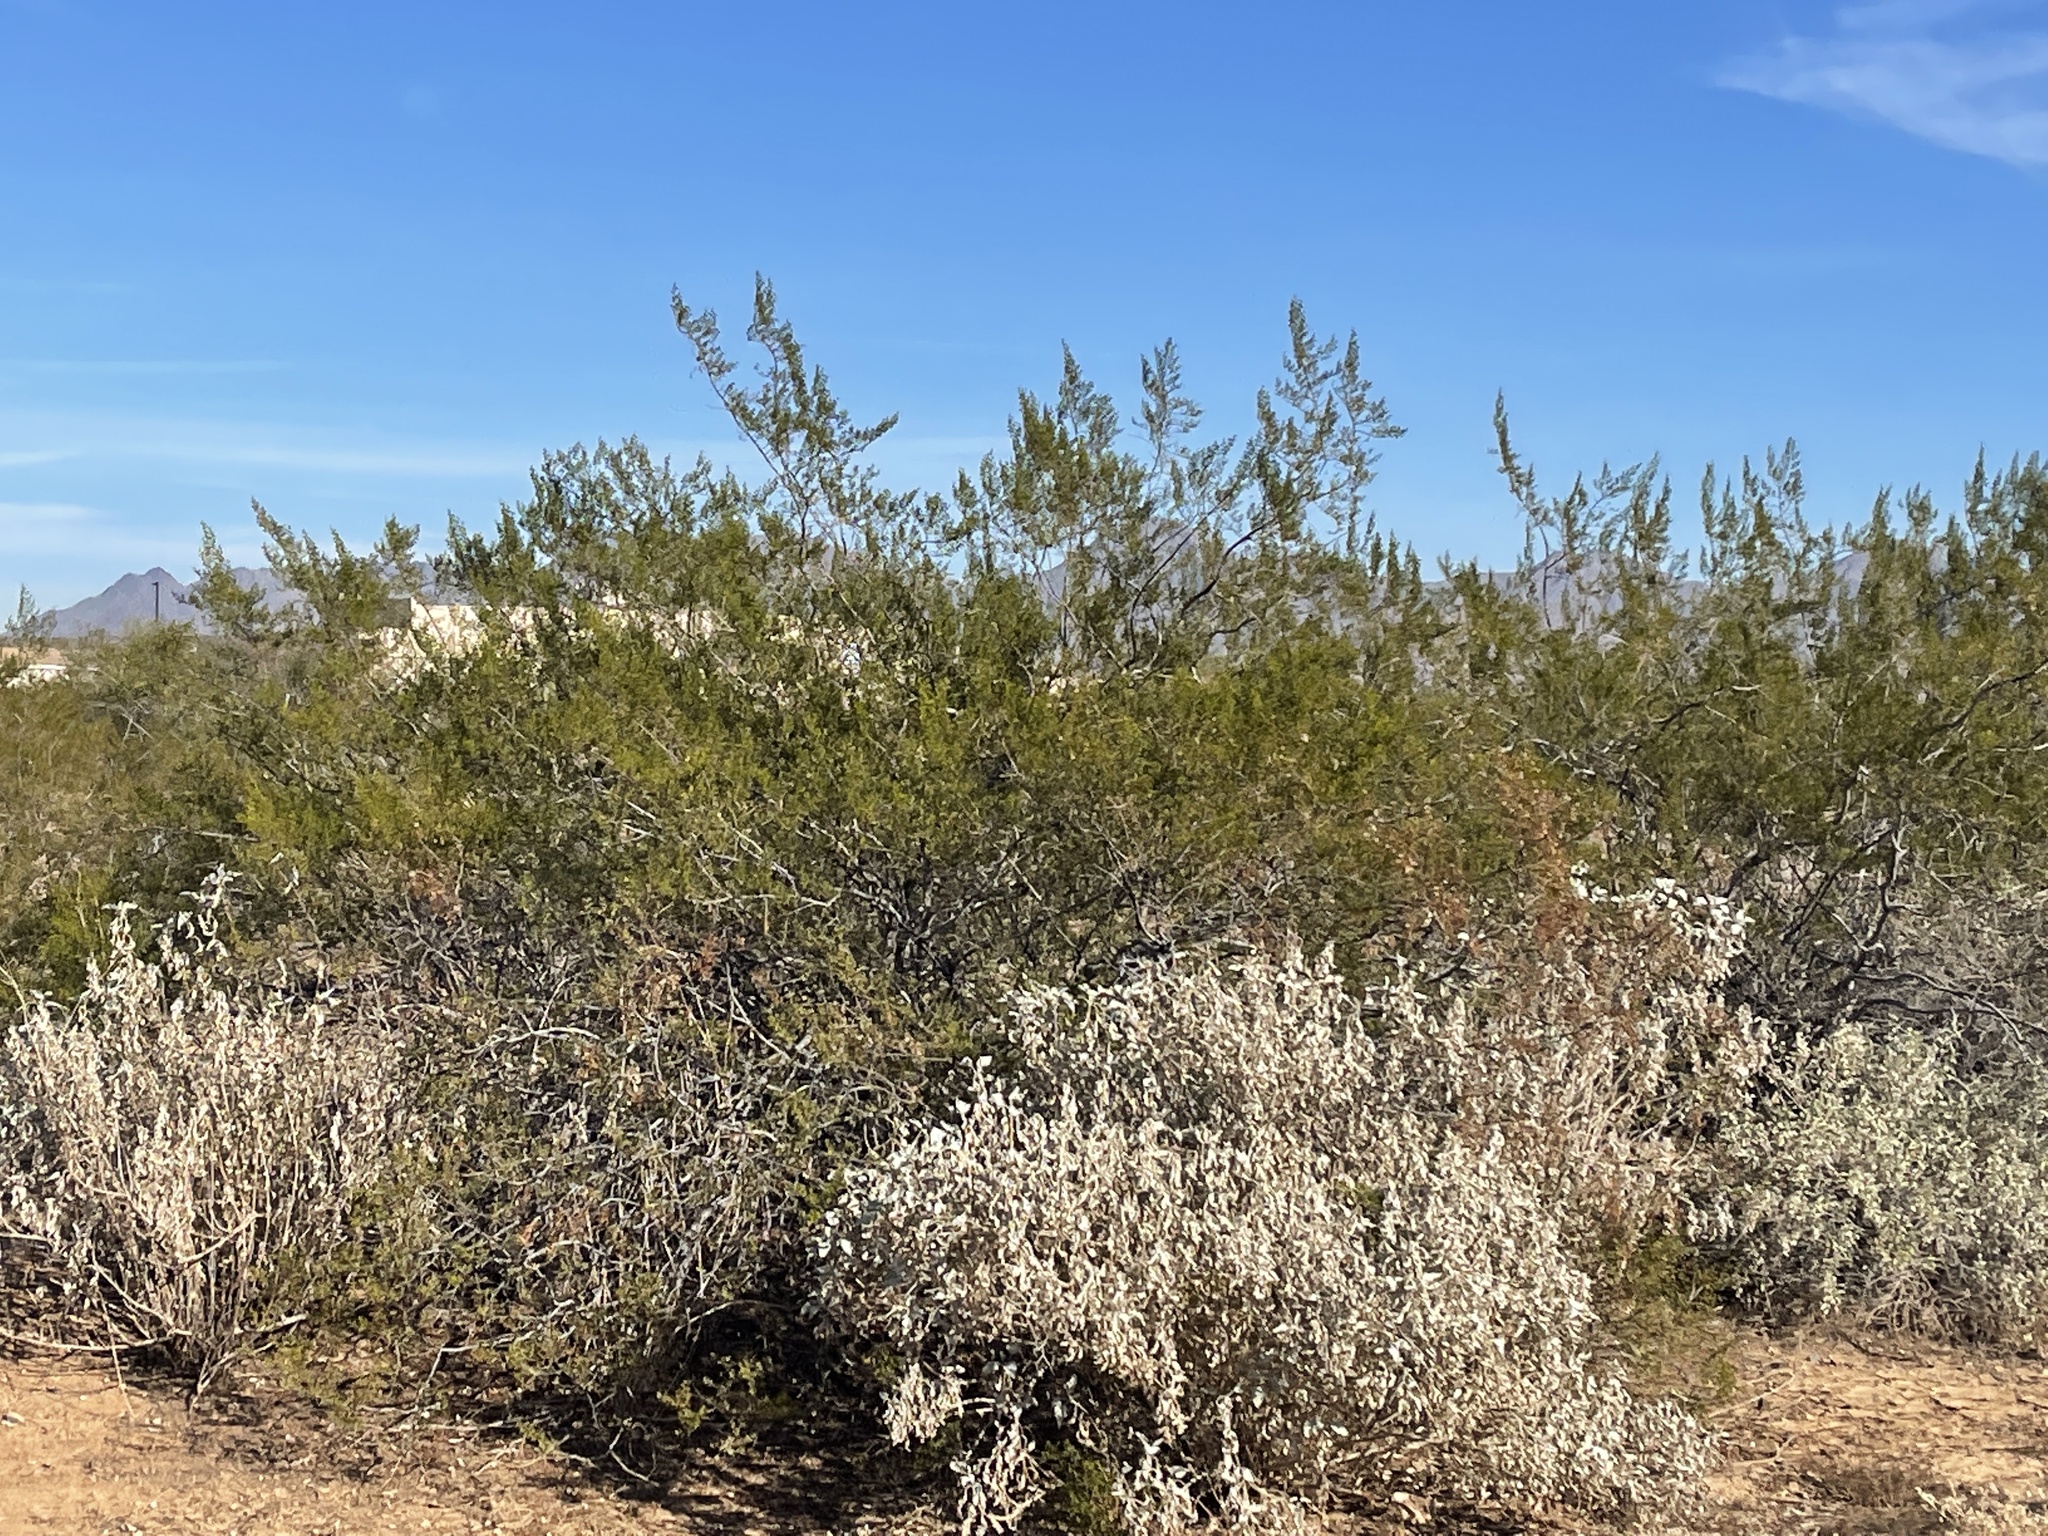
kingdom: Plantae
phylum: Tracheophyta
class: Magnoliopsida
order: Zygophyllales
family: Zygophyllaceae
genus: Larrea
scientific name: Larrea tridentata
